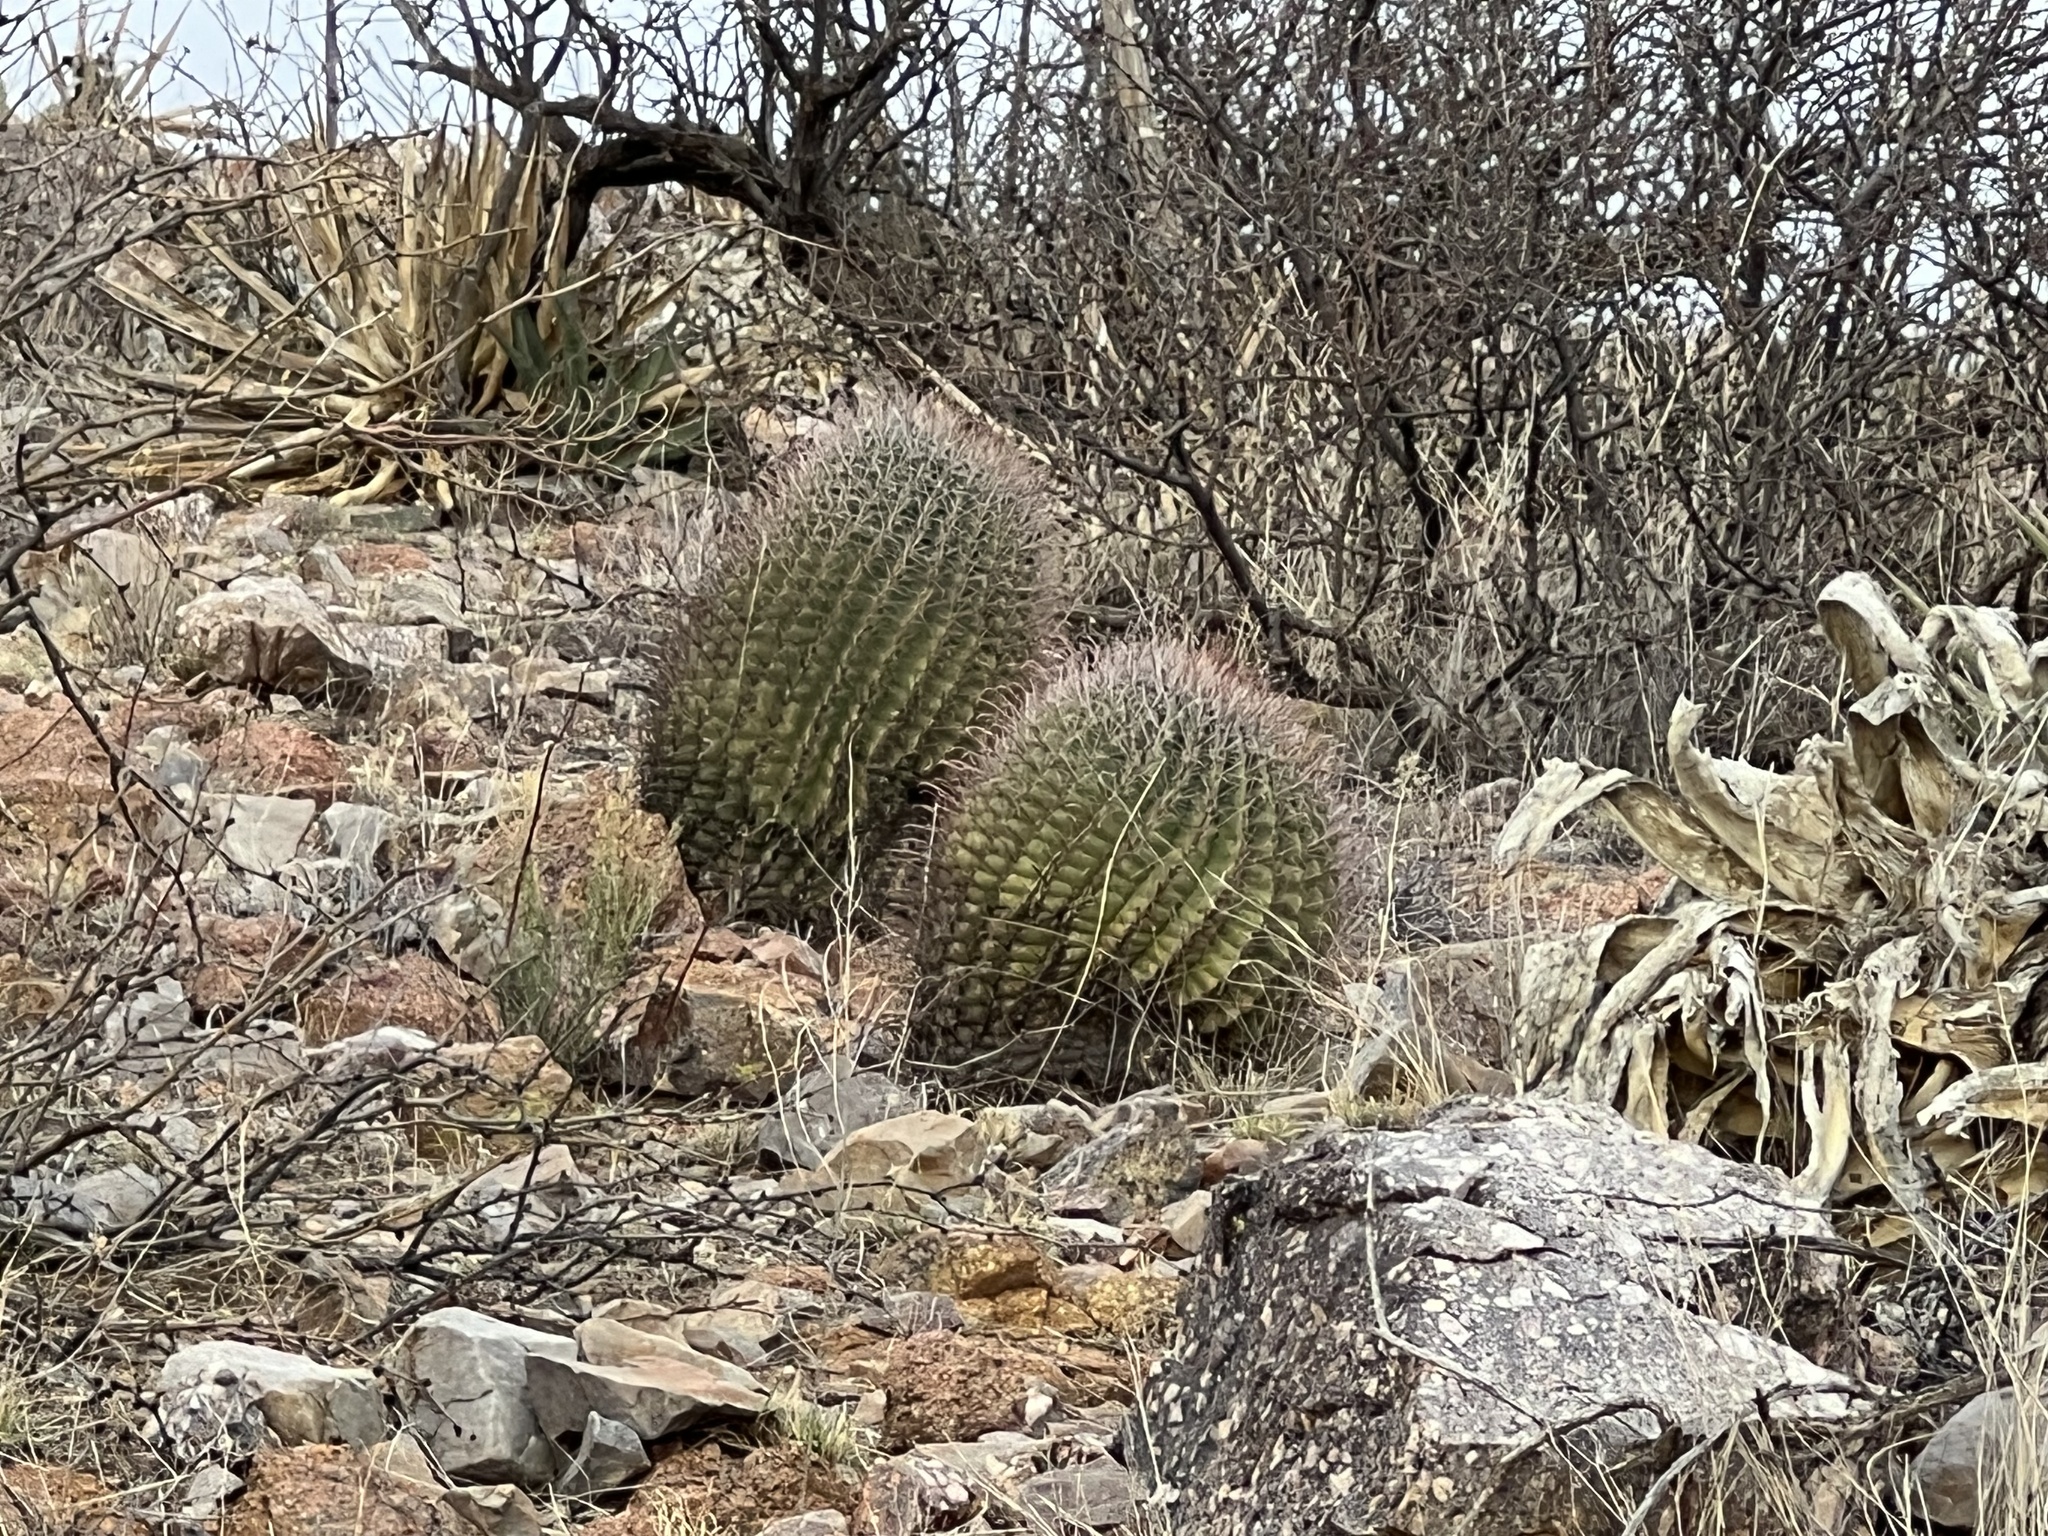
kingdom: Plantae
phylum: Tracheophyta
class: Magnoliopsida
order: Caryophyllales
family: Cactaceae
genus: Ferocactus
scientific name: Ferocactus wislizeni
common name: Candy barrel cactus
